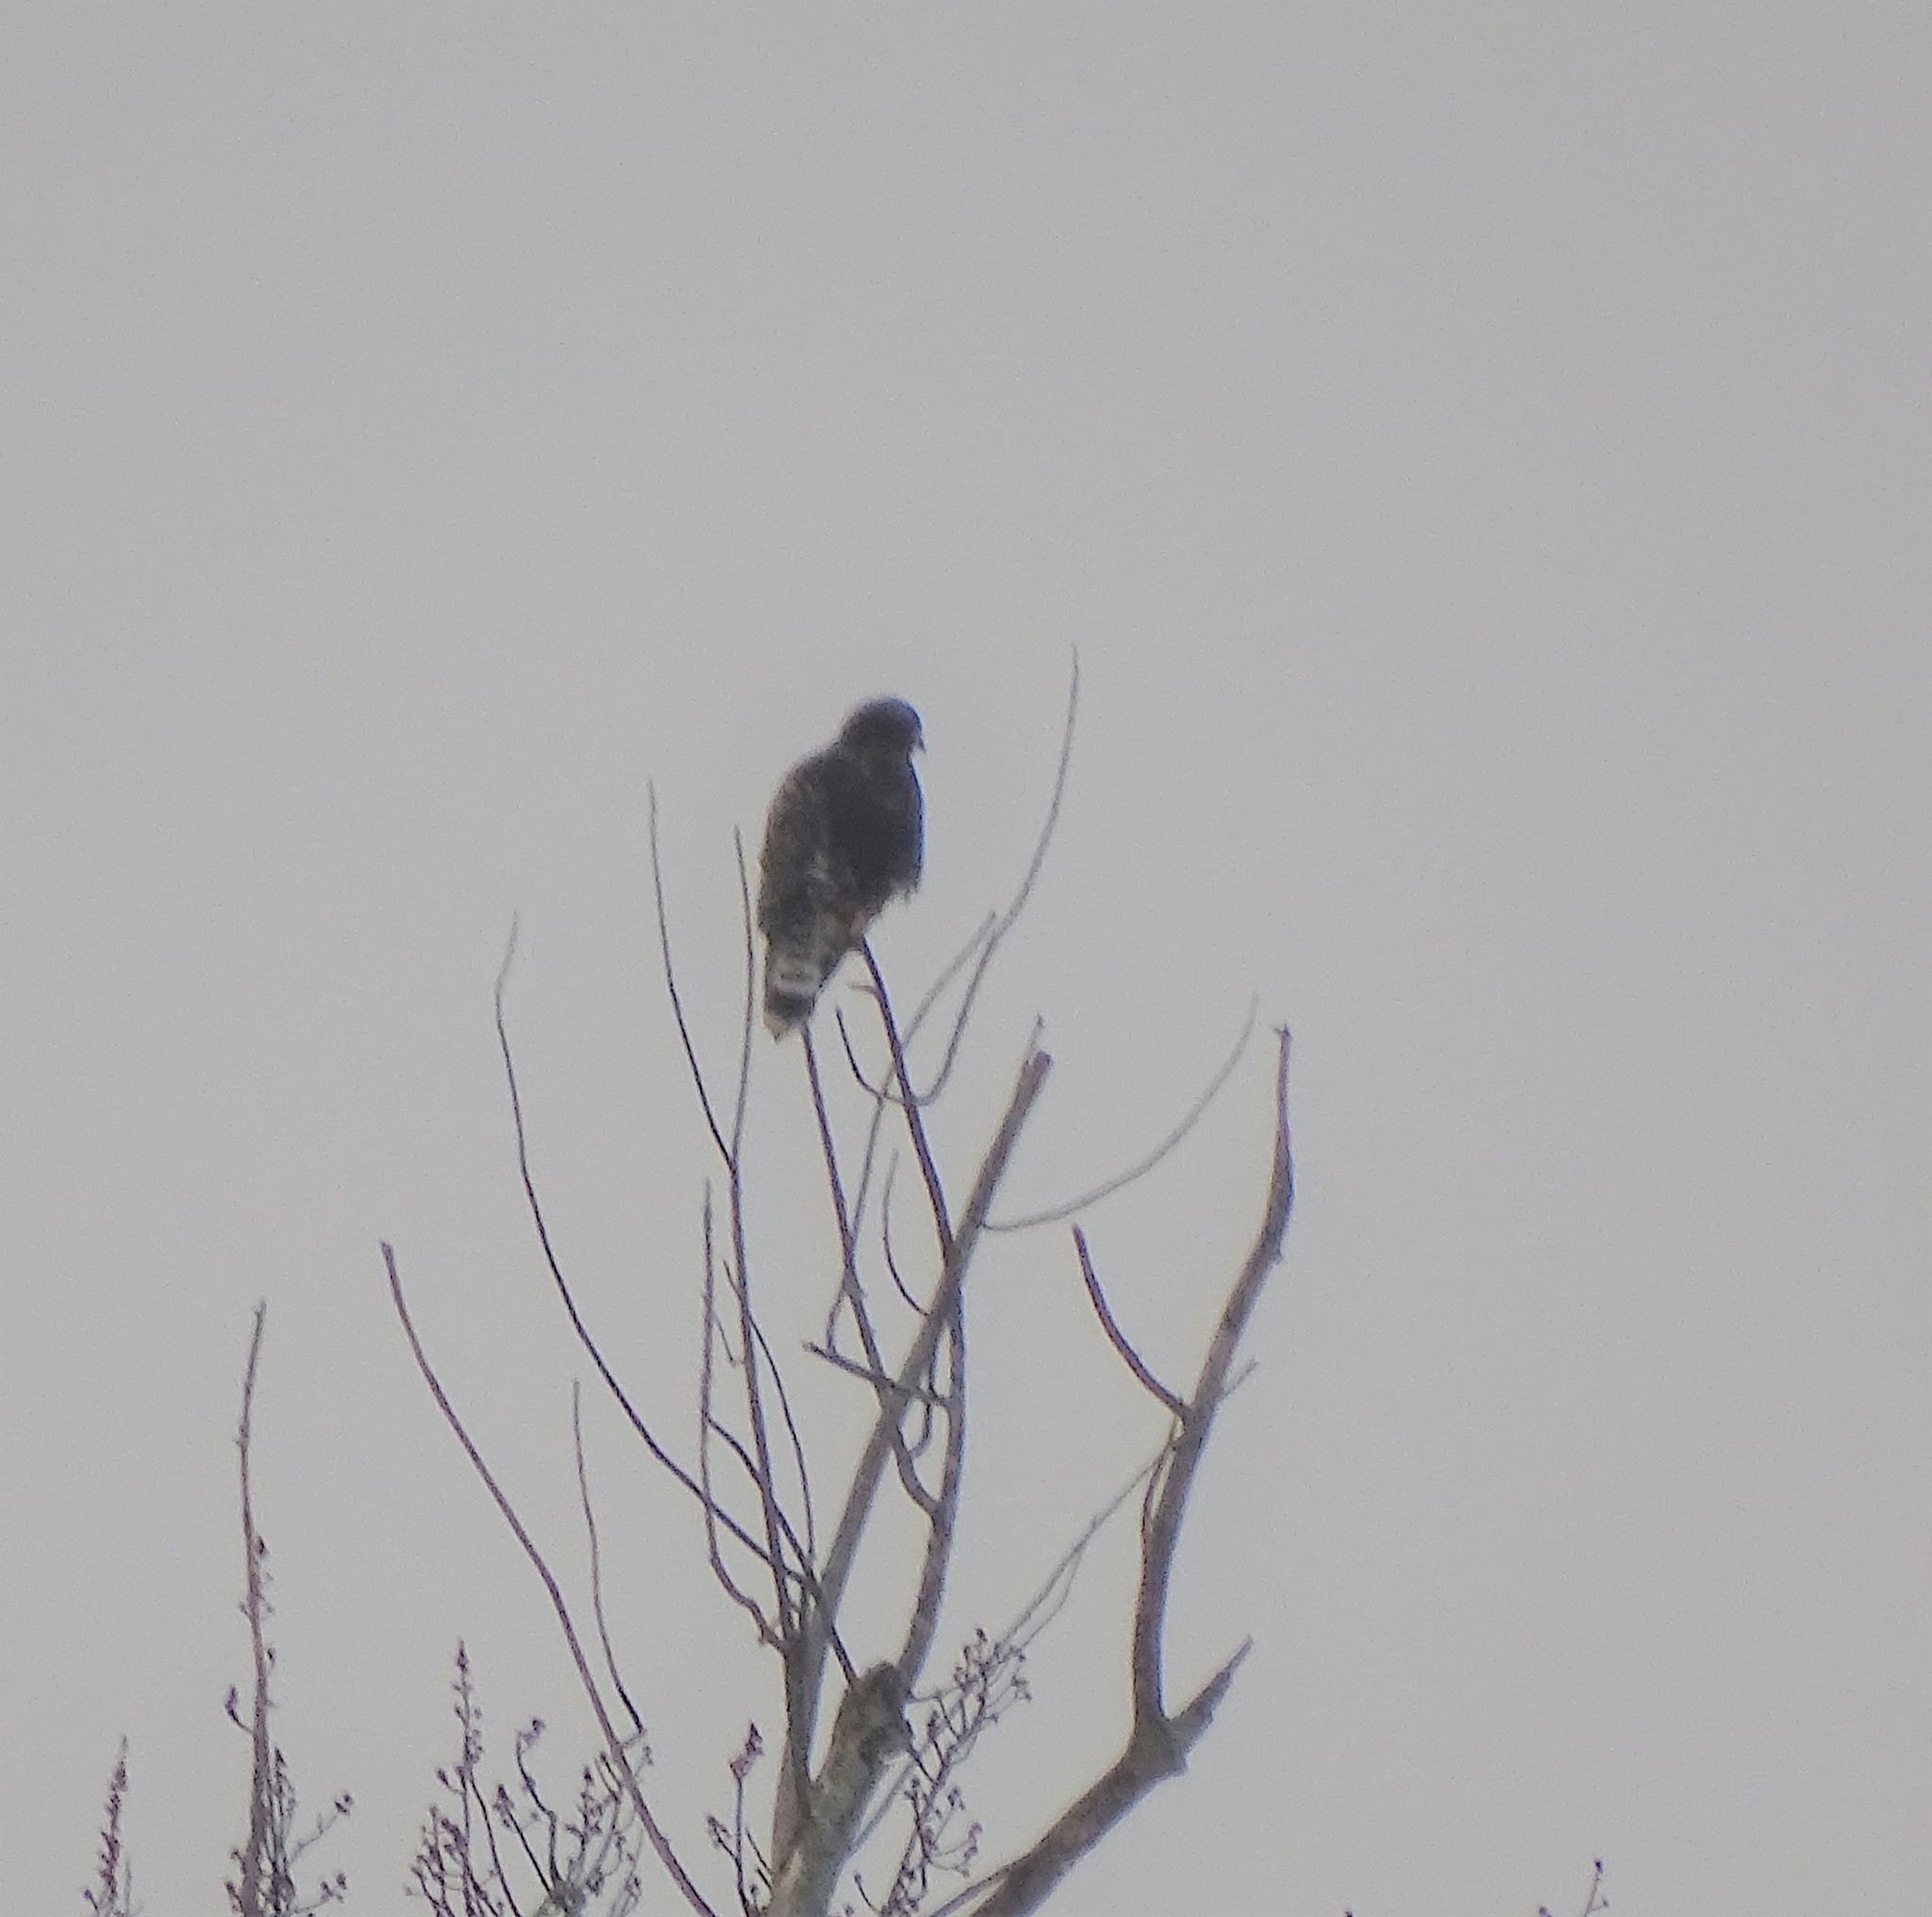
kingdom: Animalia
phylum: Chordata
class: Aves
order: Accipitriformes
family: Accipitridae
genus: Buteo
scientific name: Buteo lagopus
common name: Rough-legged buzzard
